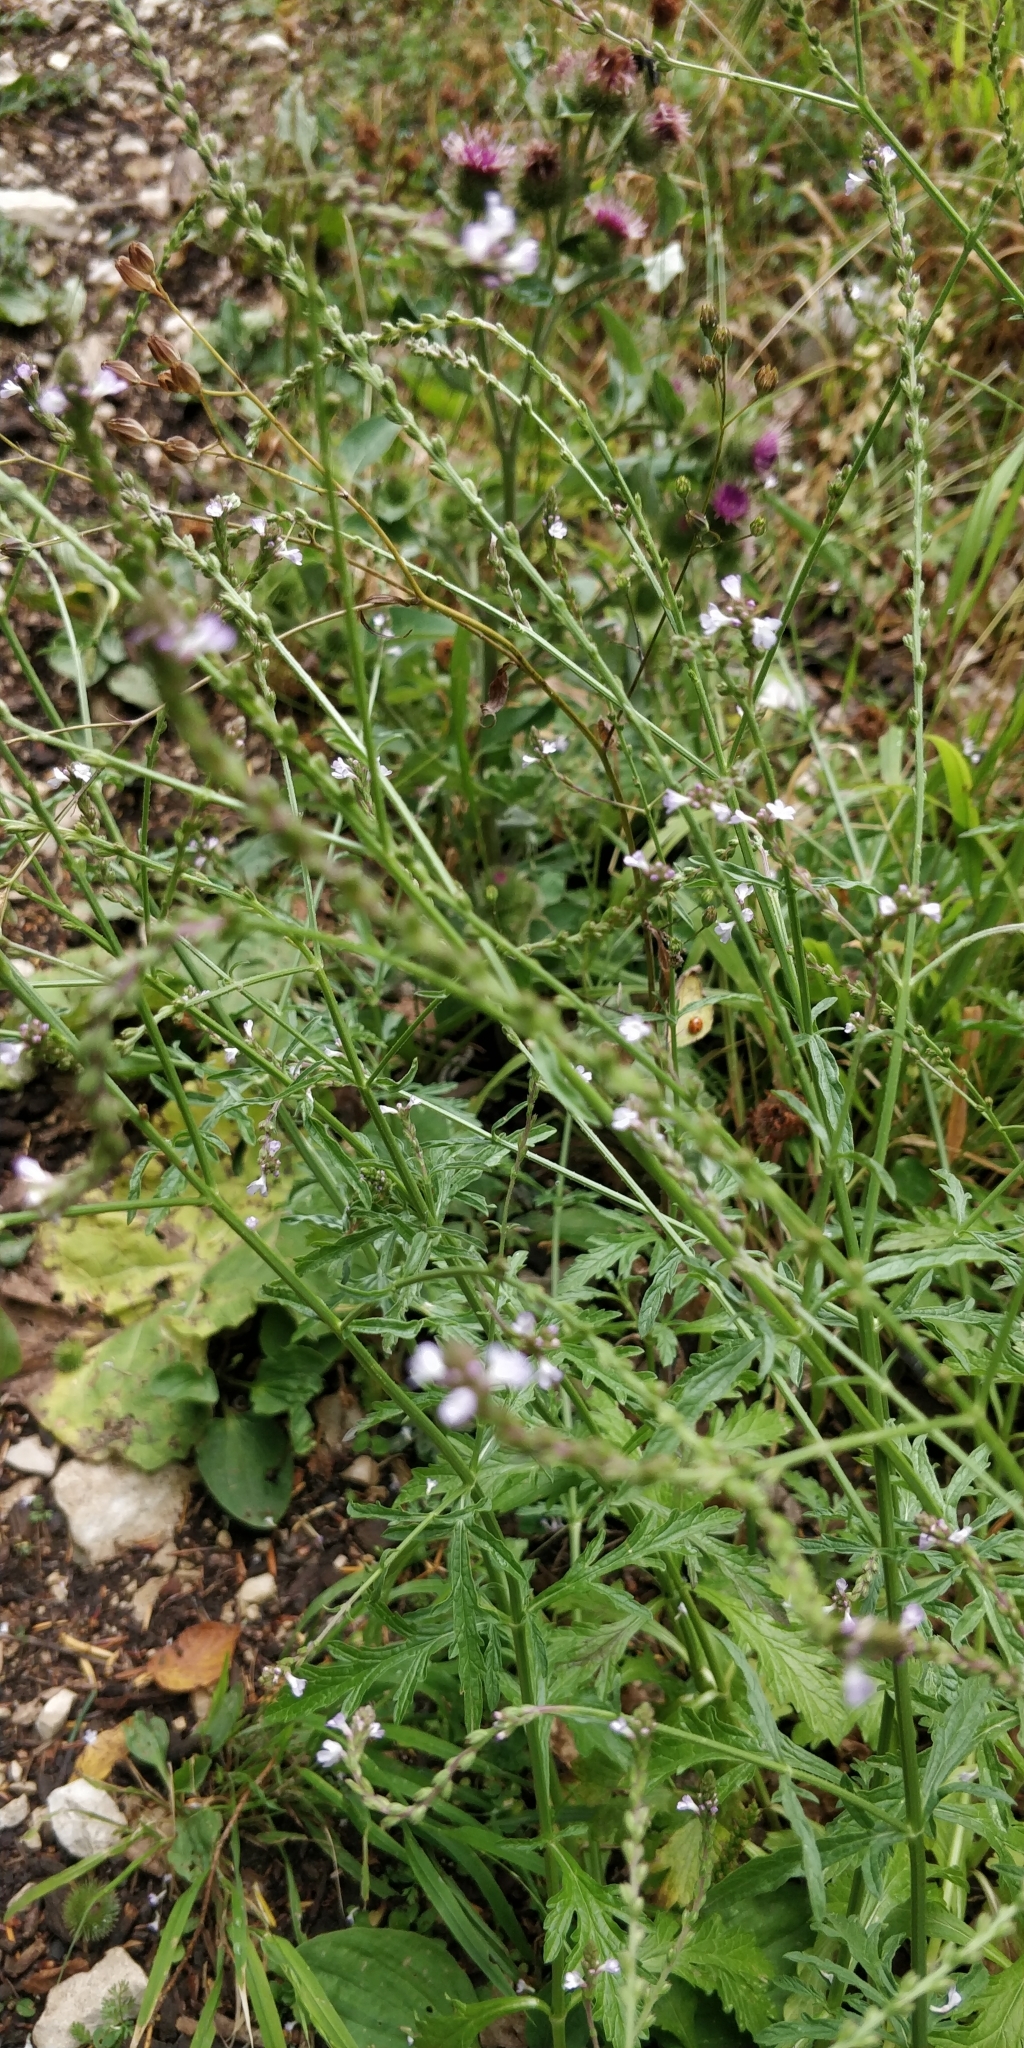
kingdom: Plantae
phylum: Tracheophyta
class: Magnoliopsida
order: Lamiales
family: Verbenaceae
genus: Verbena
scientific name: Verbena officinalis
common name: Vervain
